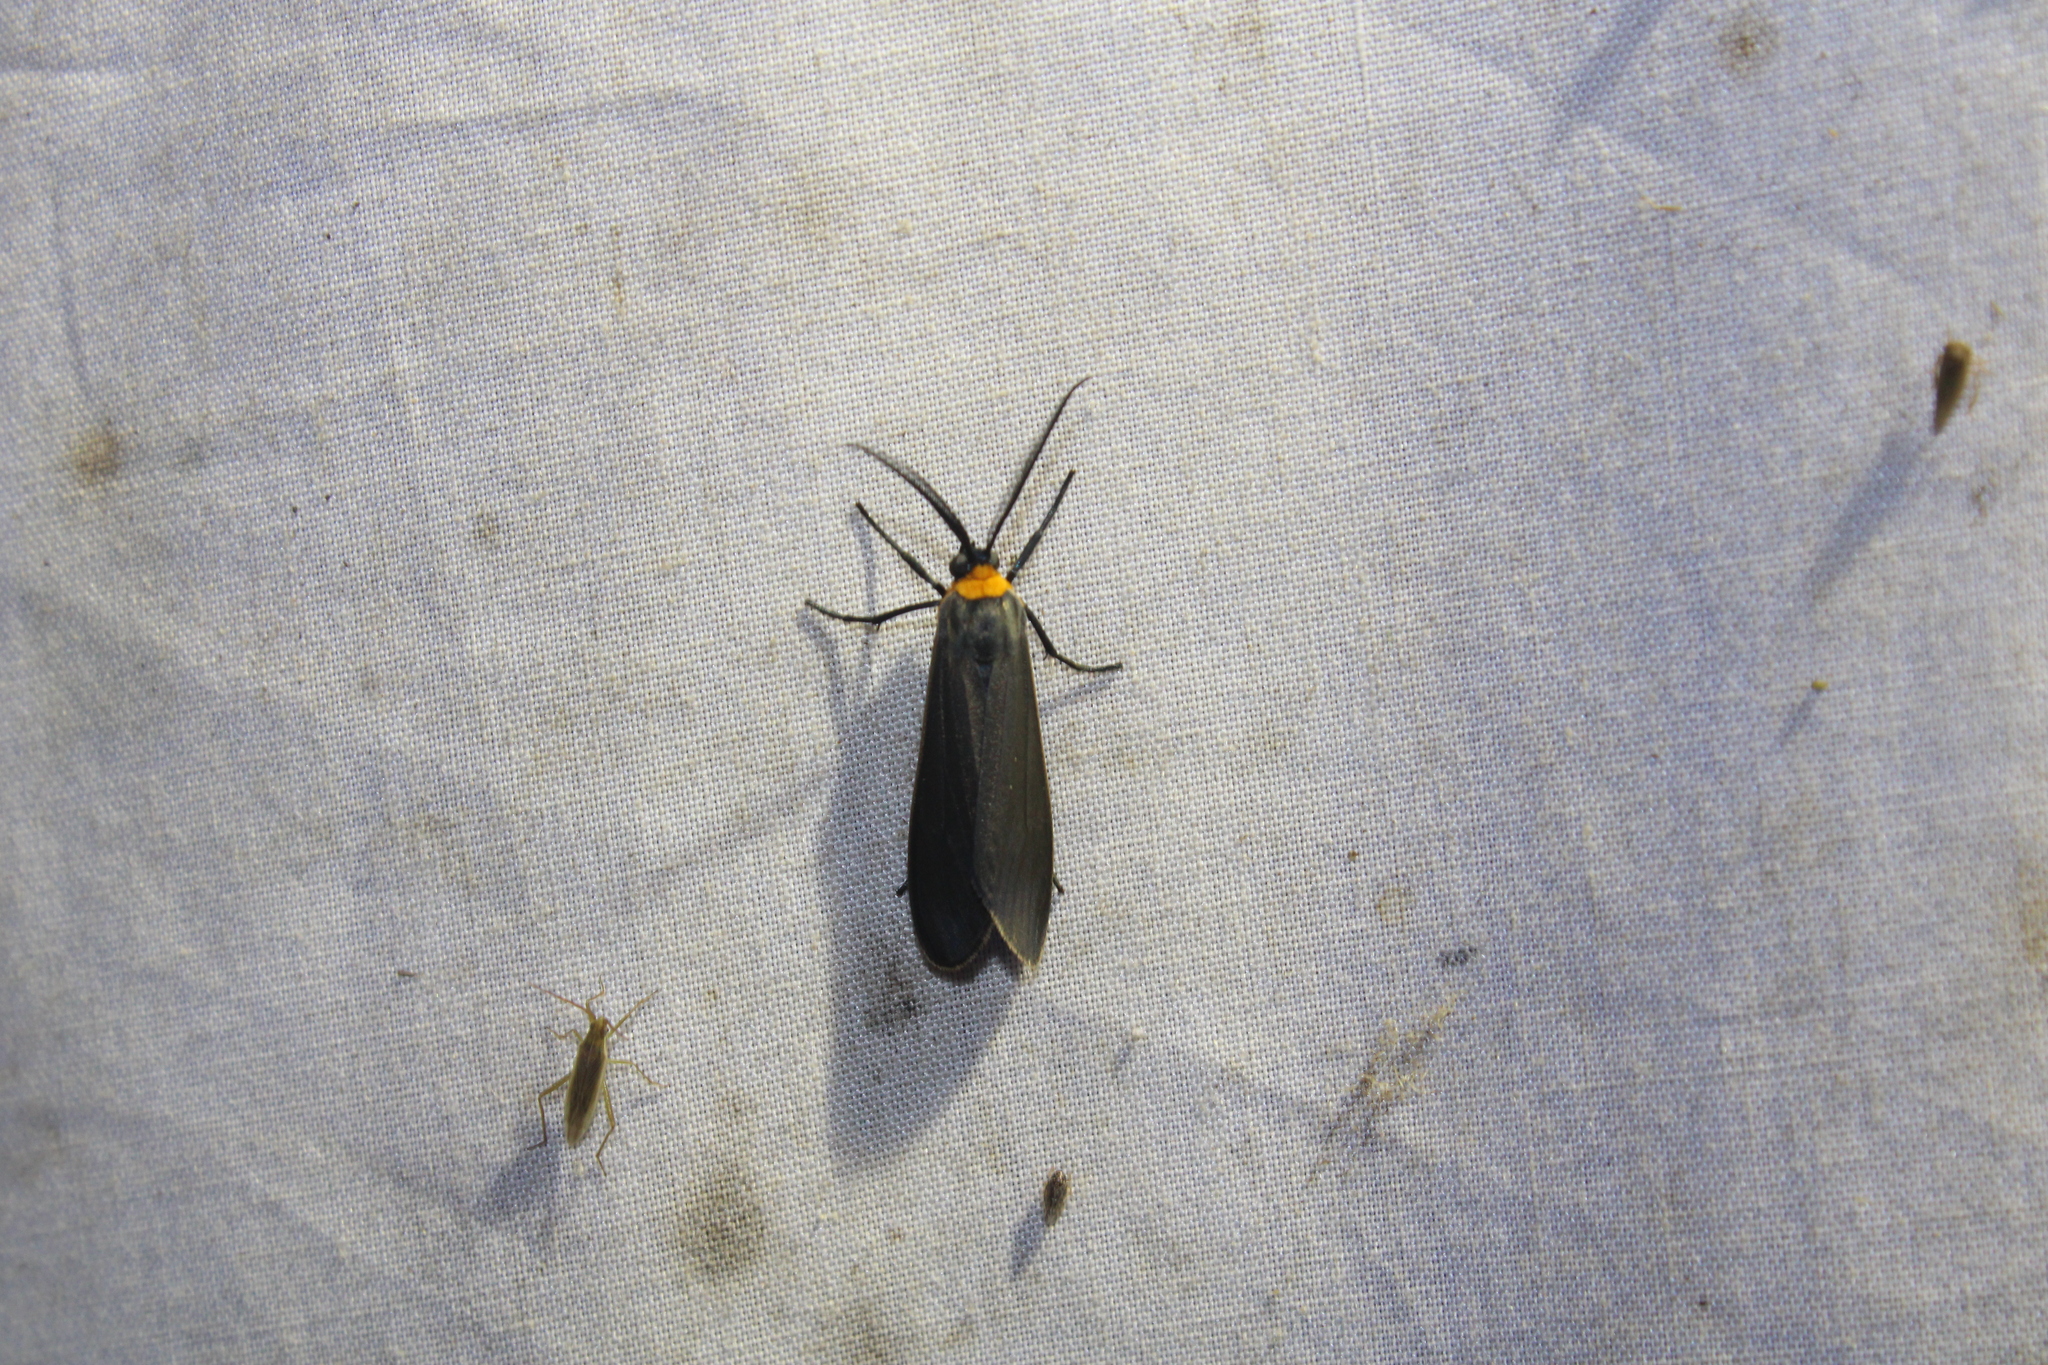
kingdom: Animalia
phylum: Arthropoda
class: Insecta
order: Lepidoptera
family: Erebidae
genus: Cisseps
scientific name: Cisseps fulvicollis
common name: Yellow-collared scape moth
